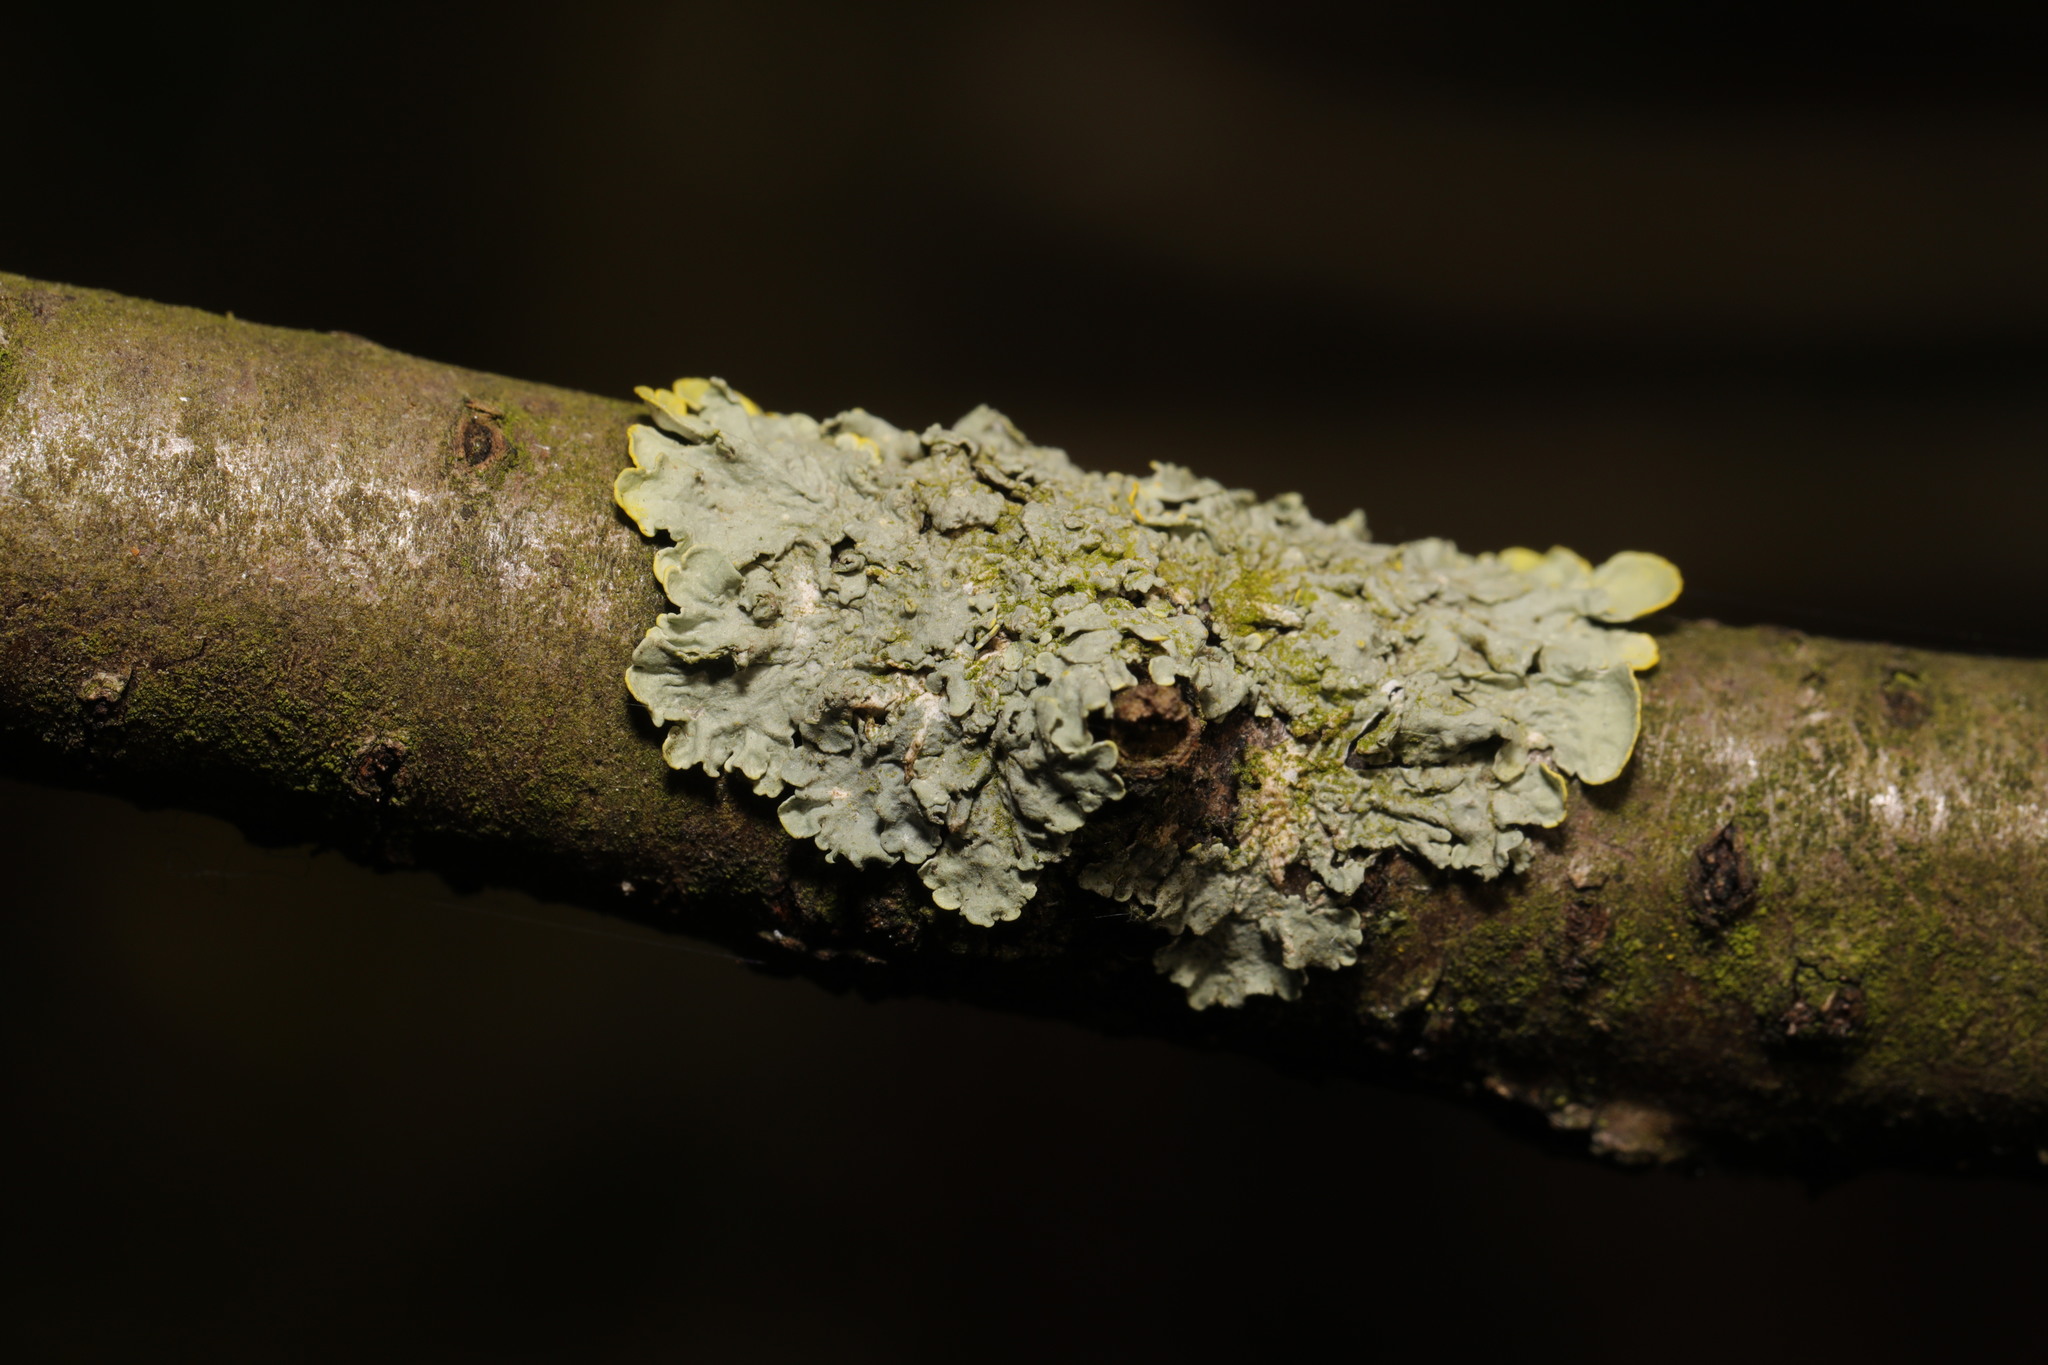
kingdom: Fungi
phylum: Ascomycota
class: Lecanoromycetes
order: Teloschistales
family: Teloschistaceae
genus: Xanthoria
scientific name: Xanthoria parietina
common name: Common orange lichen
